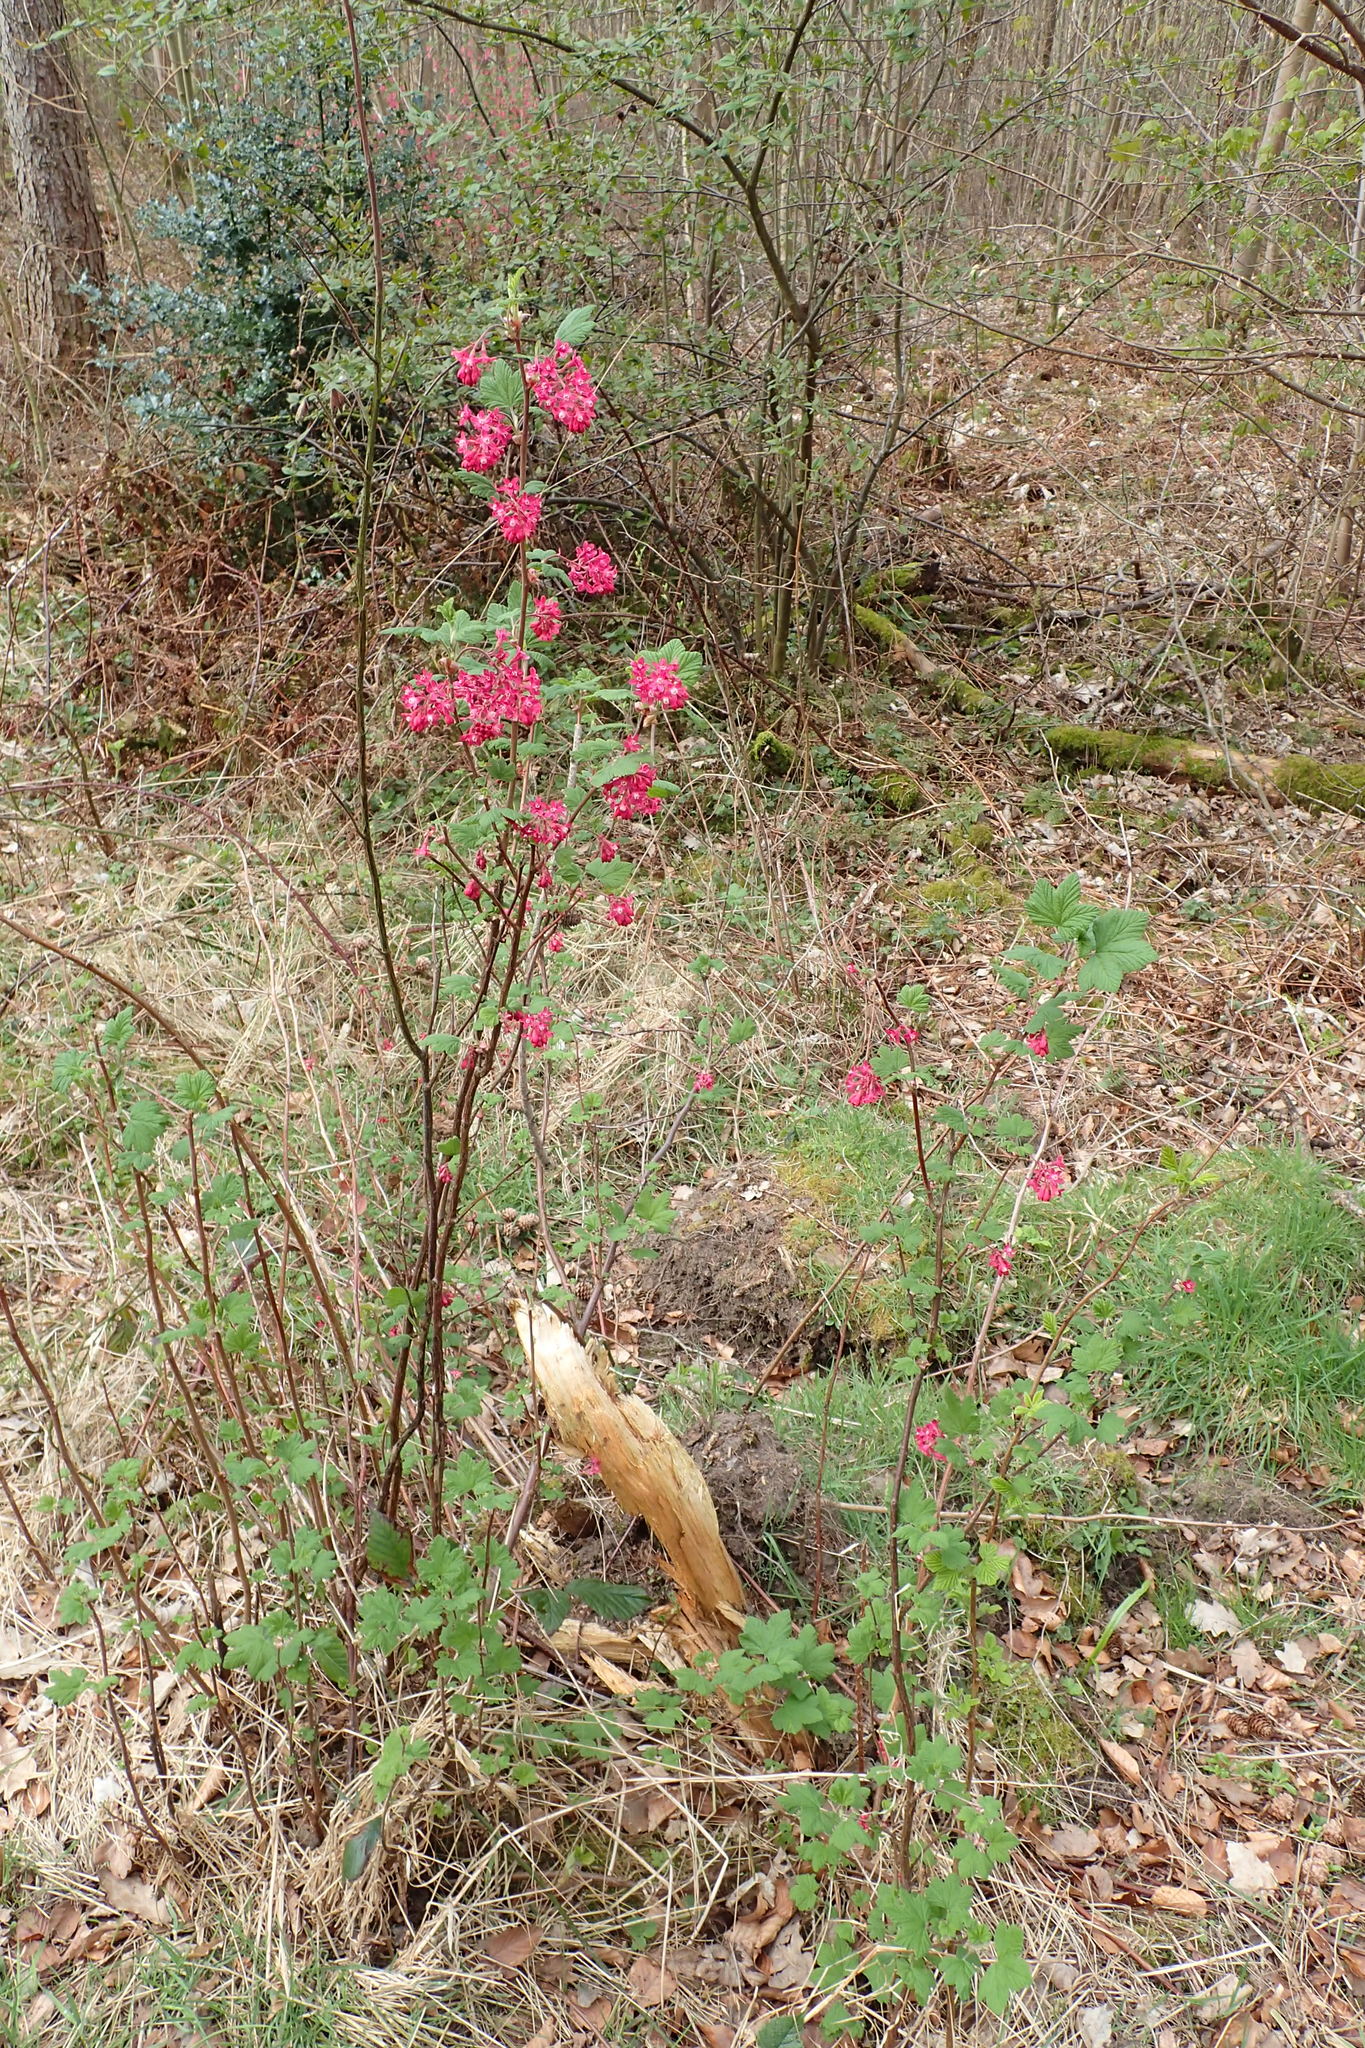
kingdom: Plantae
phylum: Tracheophyta
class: Magnoliopsida
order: Saxifragales
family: Grossulariaceae
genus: Ribes
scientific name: Ribes sanguineum
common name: Flowering currant
